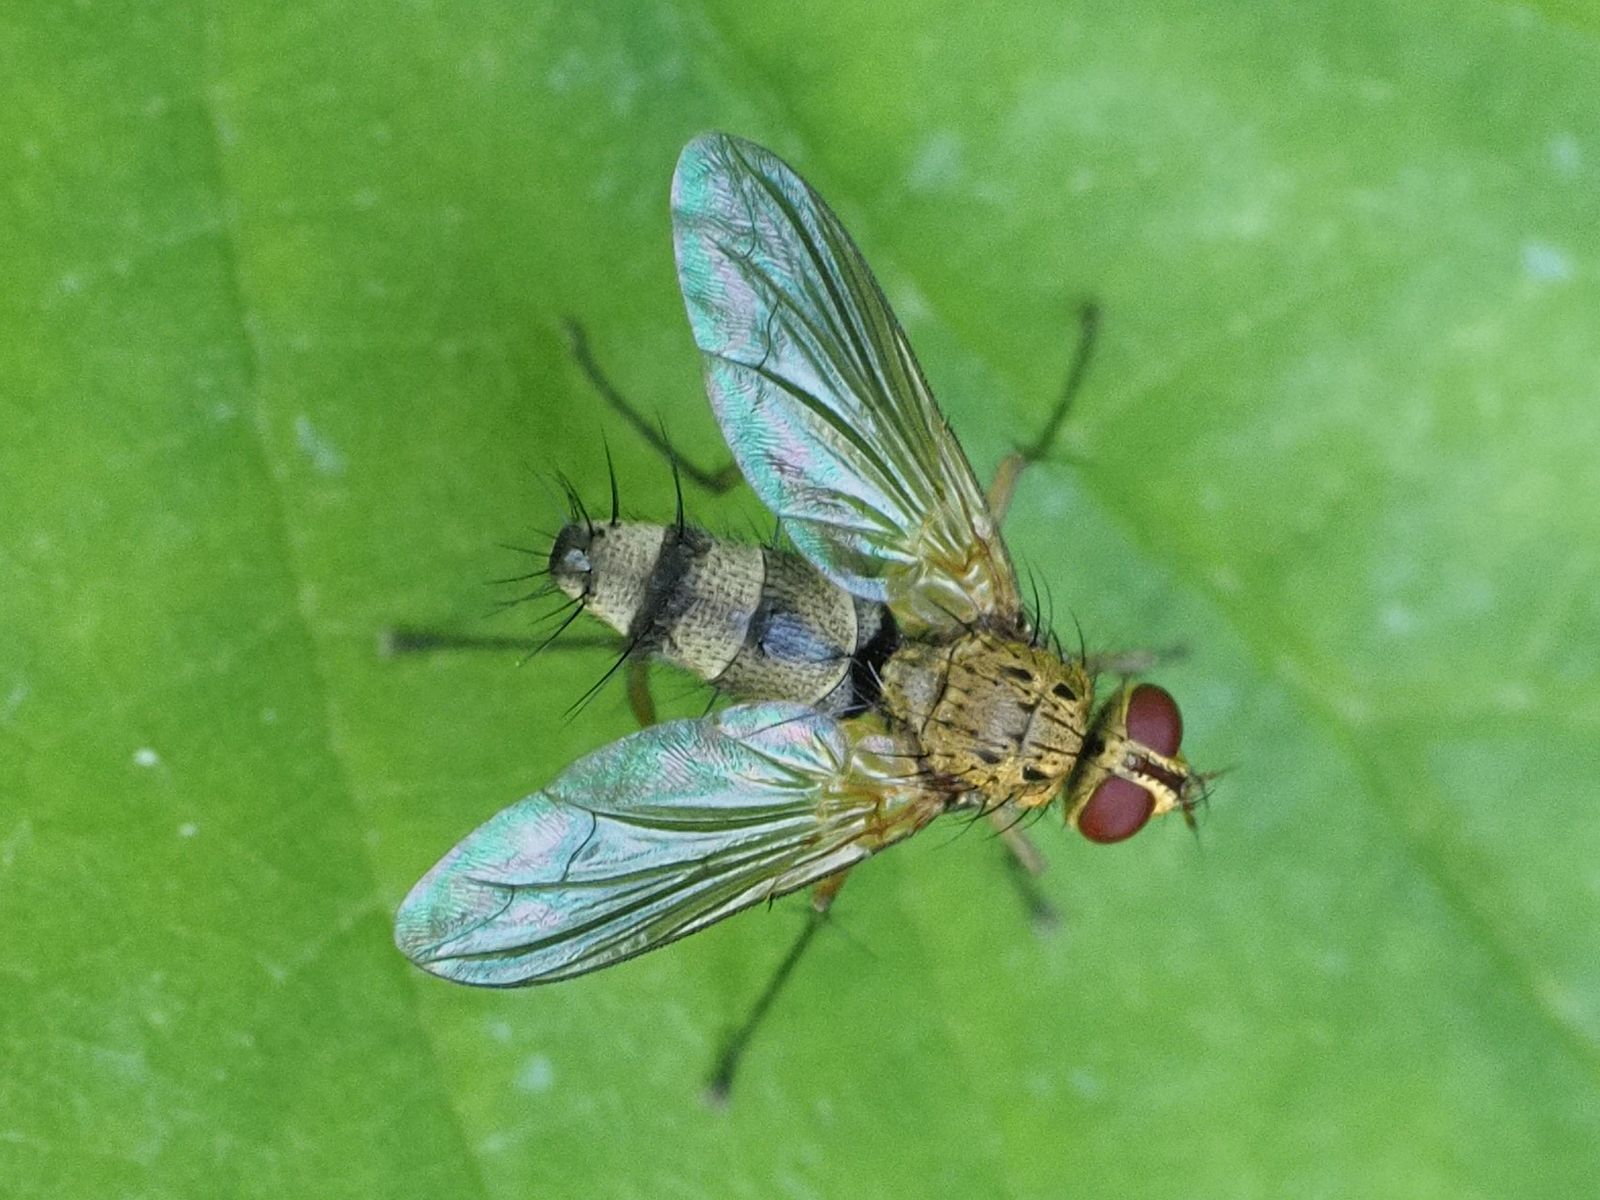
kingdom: Animalia
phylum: Arthropoda
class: Insecta
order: Diptera
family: Tachinidae
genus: Dexiosoma
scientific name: Dexiosoma caninum
